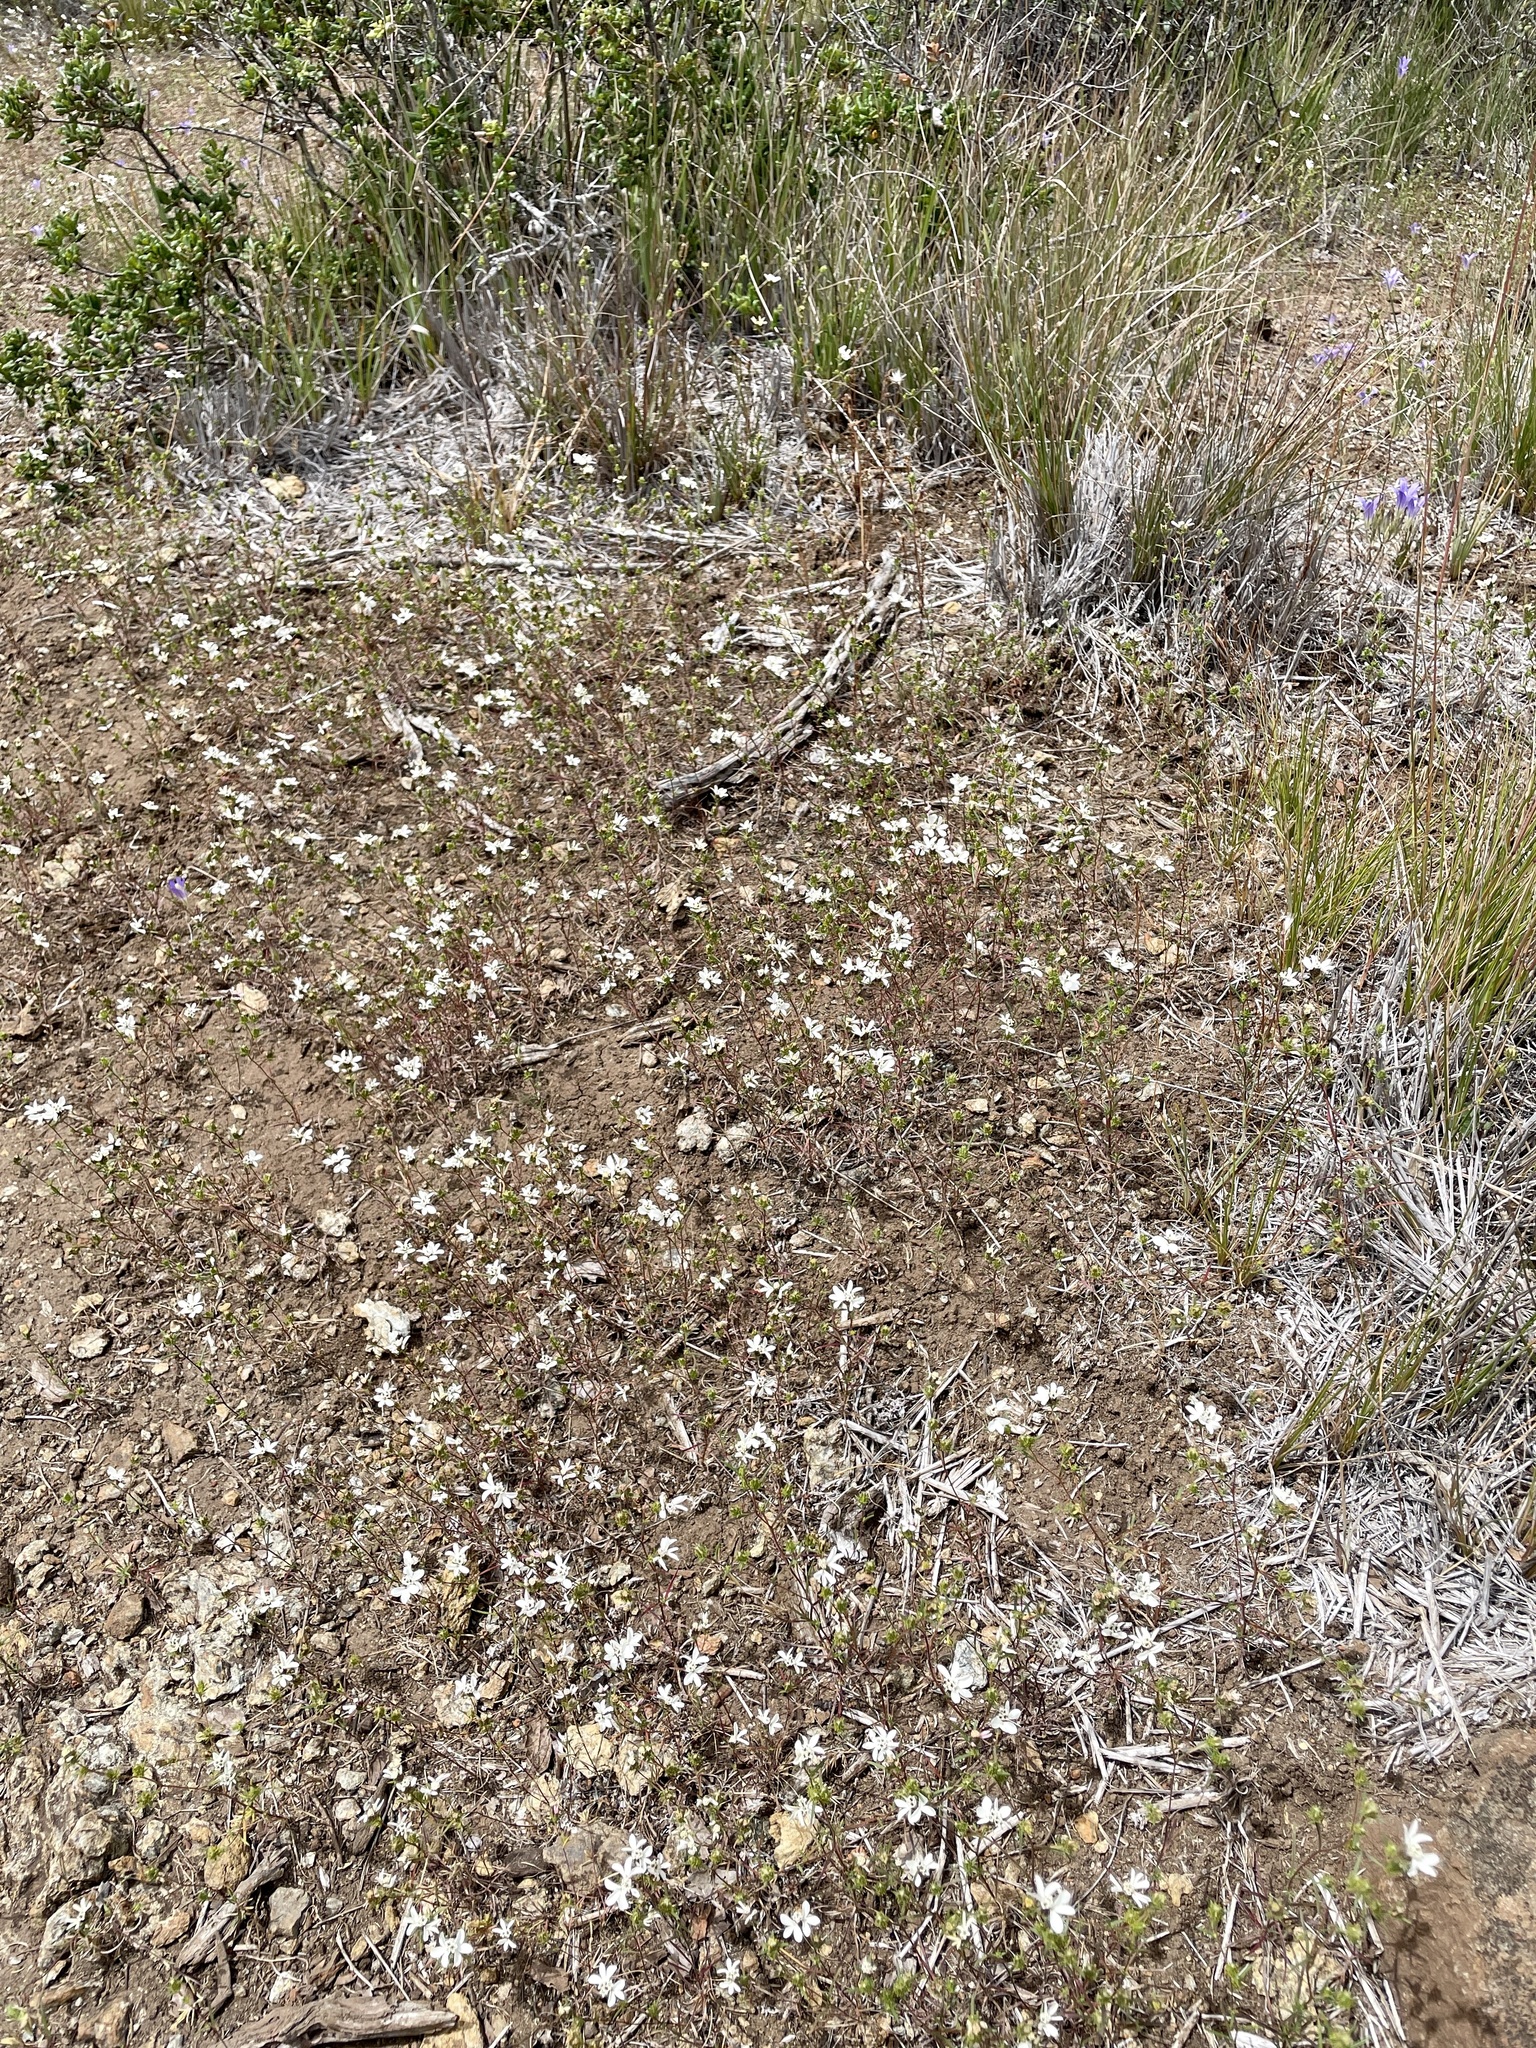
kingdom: Plantae
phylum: Tracheophyta
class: Magnoliopsida
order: Asterales
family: Asteraceae
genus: Calycadenia
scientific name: Calycadenia multiglandulosa
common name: Sticky calycadenia
